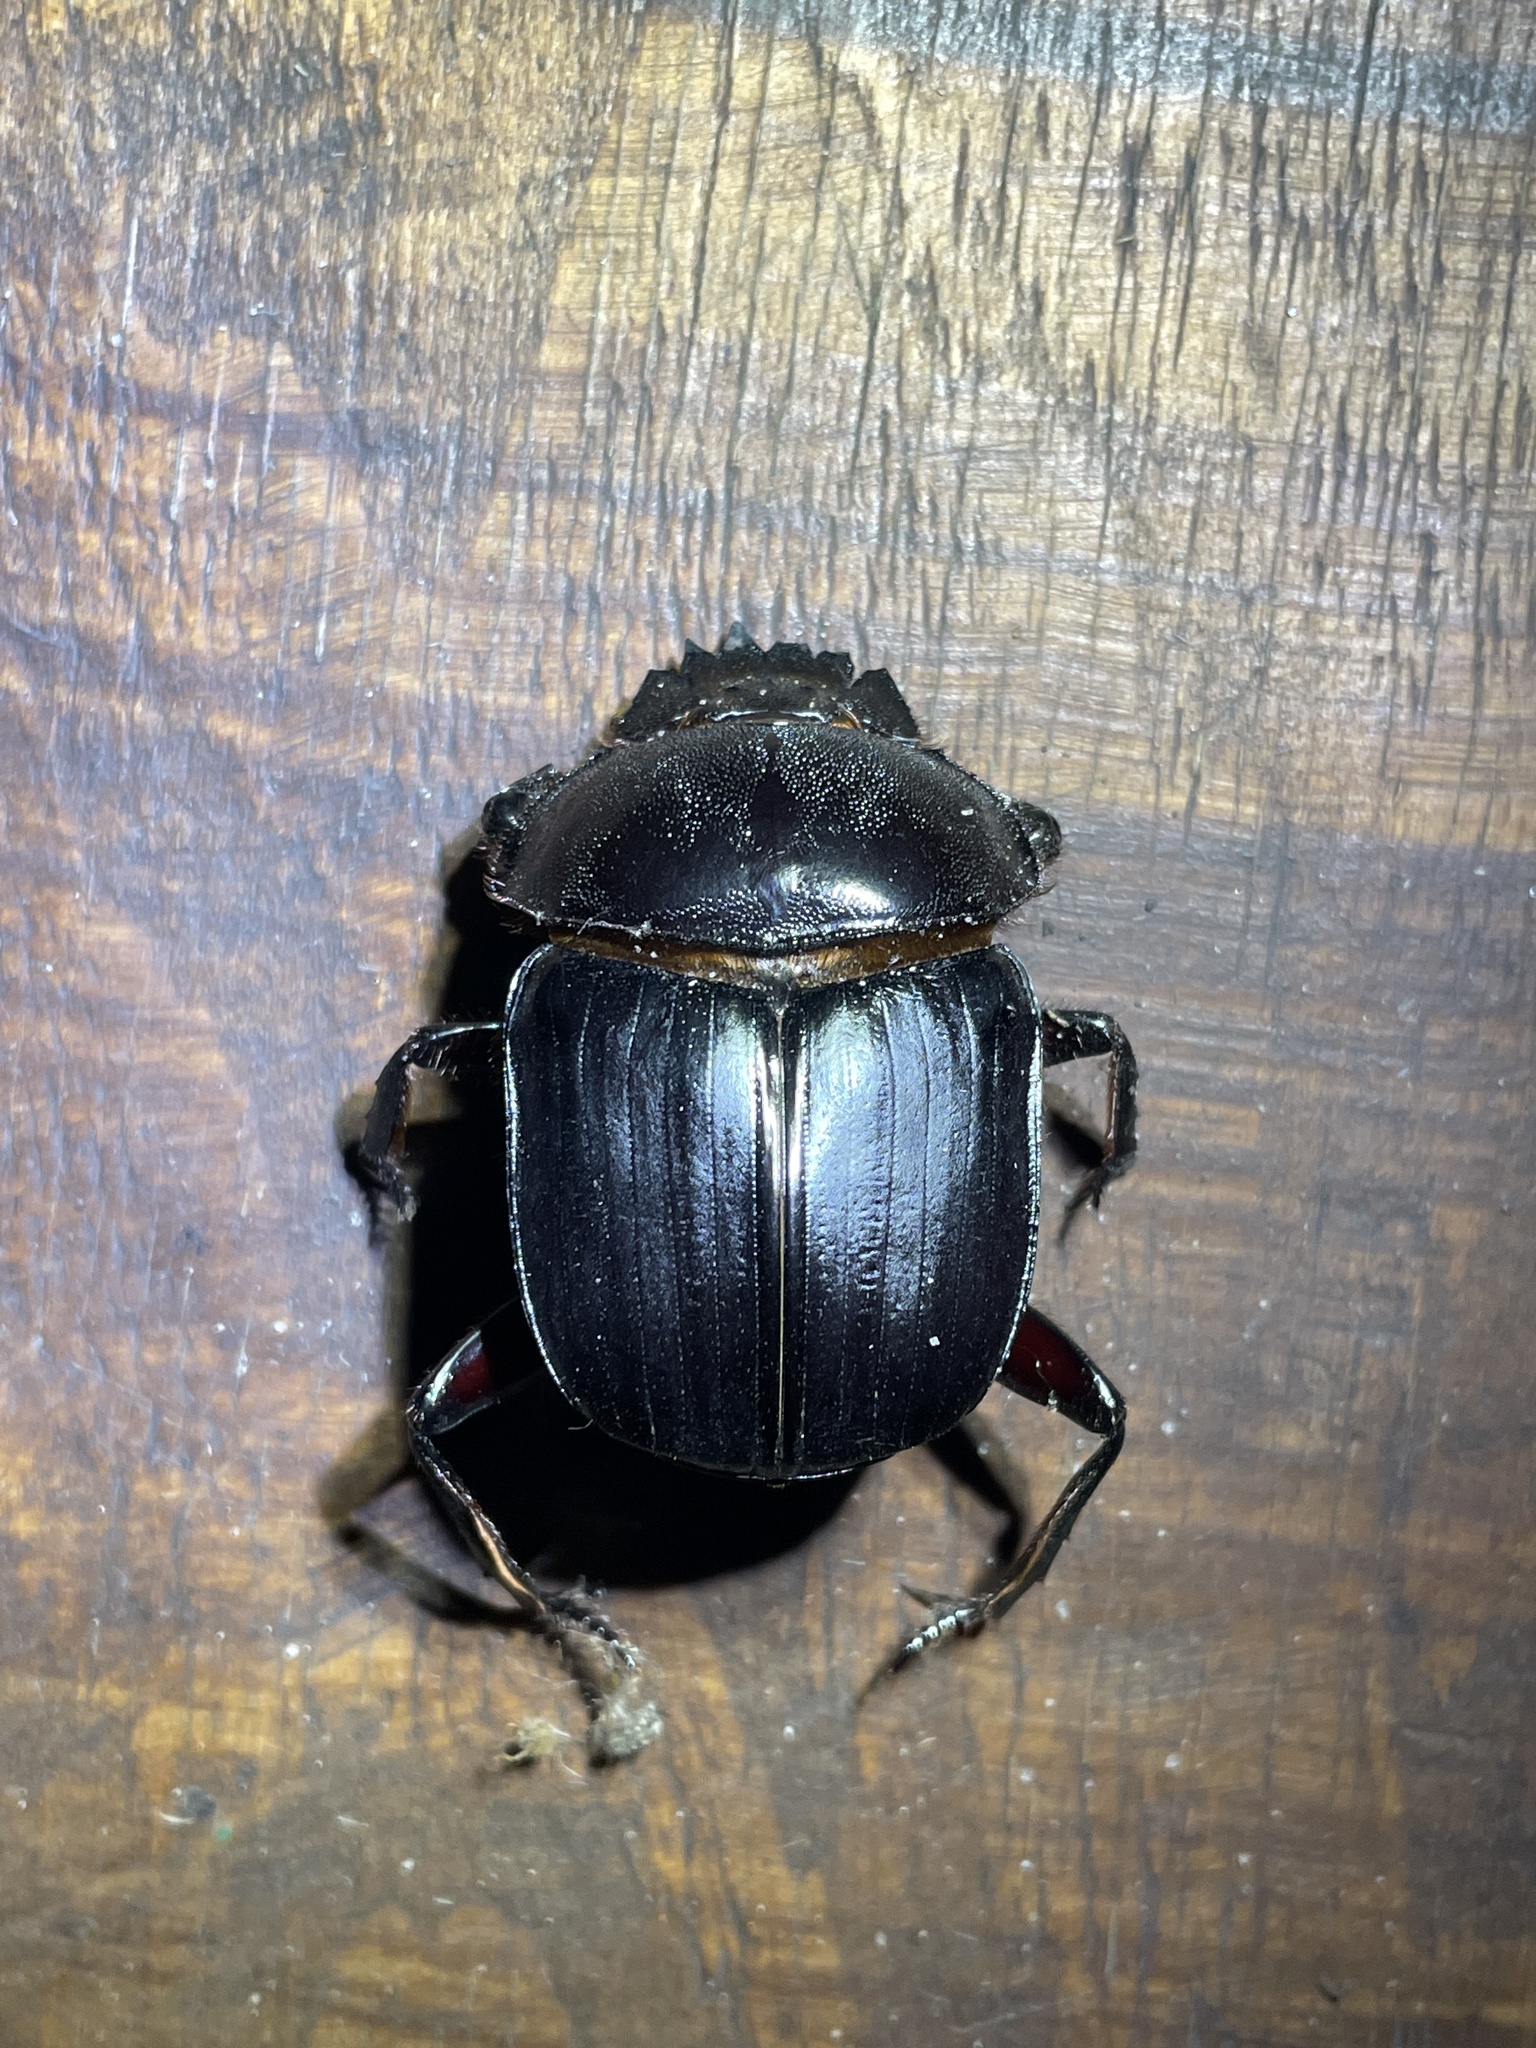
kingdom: Animalia
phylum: Arthropoda
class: Insecta
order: Coleoptera
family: Scarabaeidae
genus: Kheper
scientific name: Kheper lamarcki
